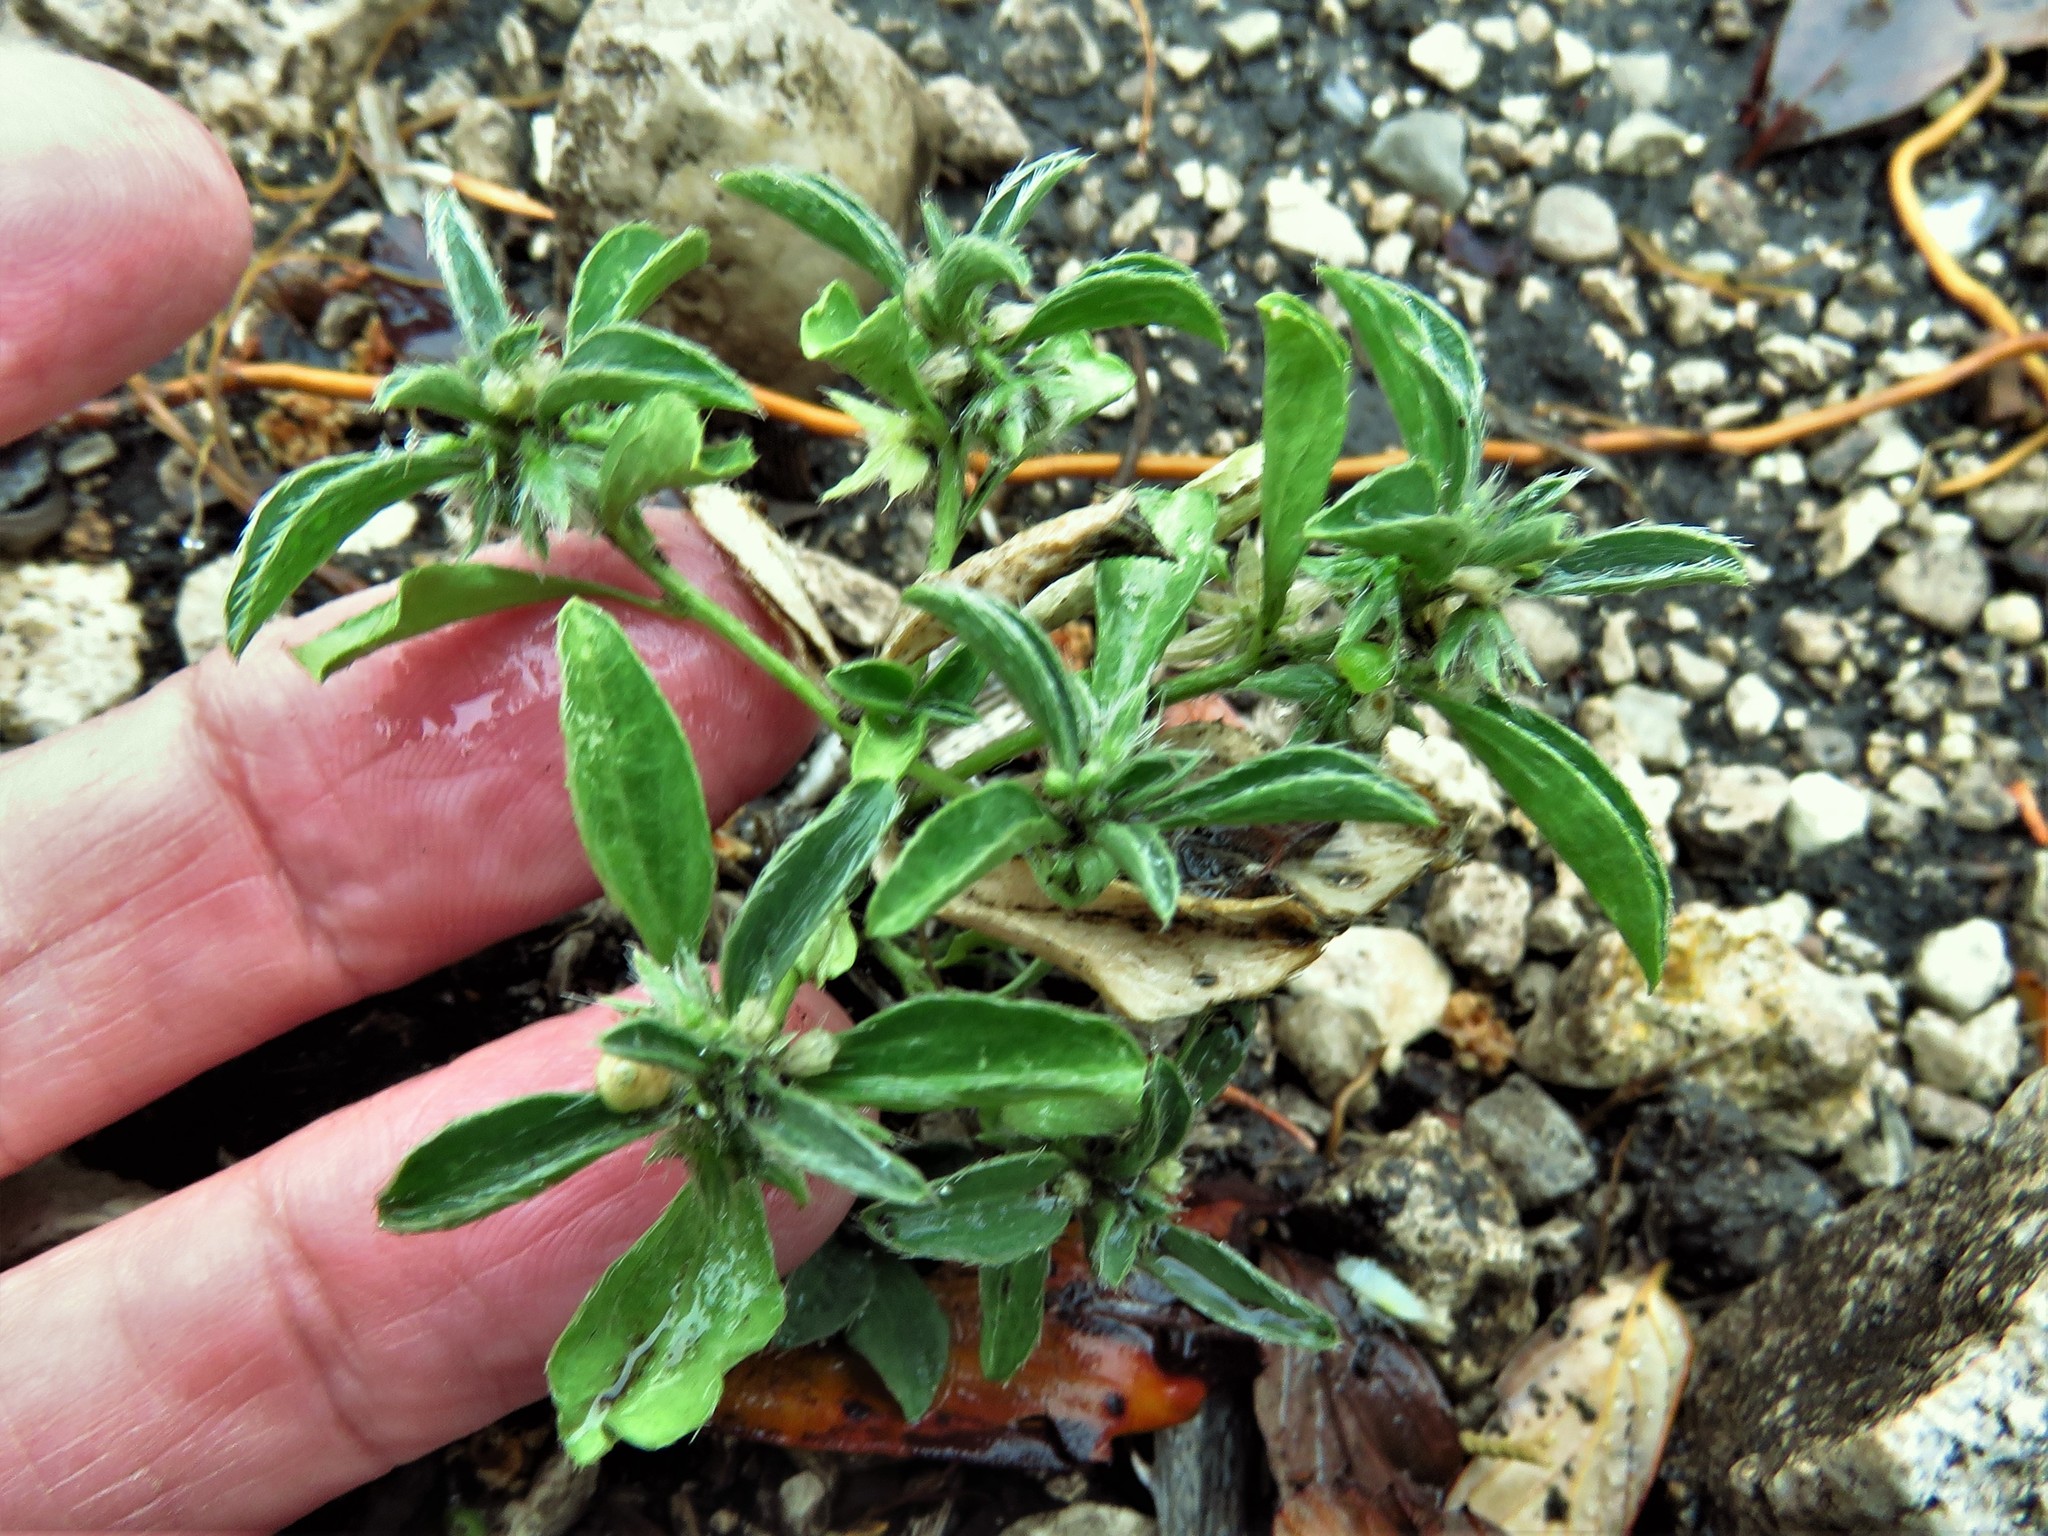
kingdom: Plantae
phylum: Tracheophyta
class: Magnoliopsida
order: Malpighiales
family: Euphorbiaceae
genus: Ditaxis
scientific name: Ditaxis humilis
